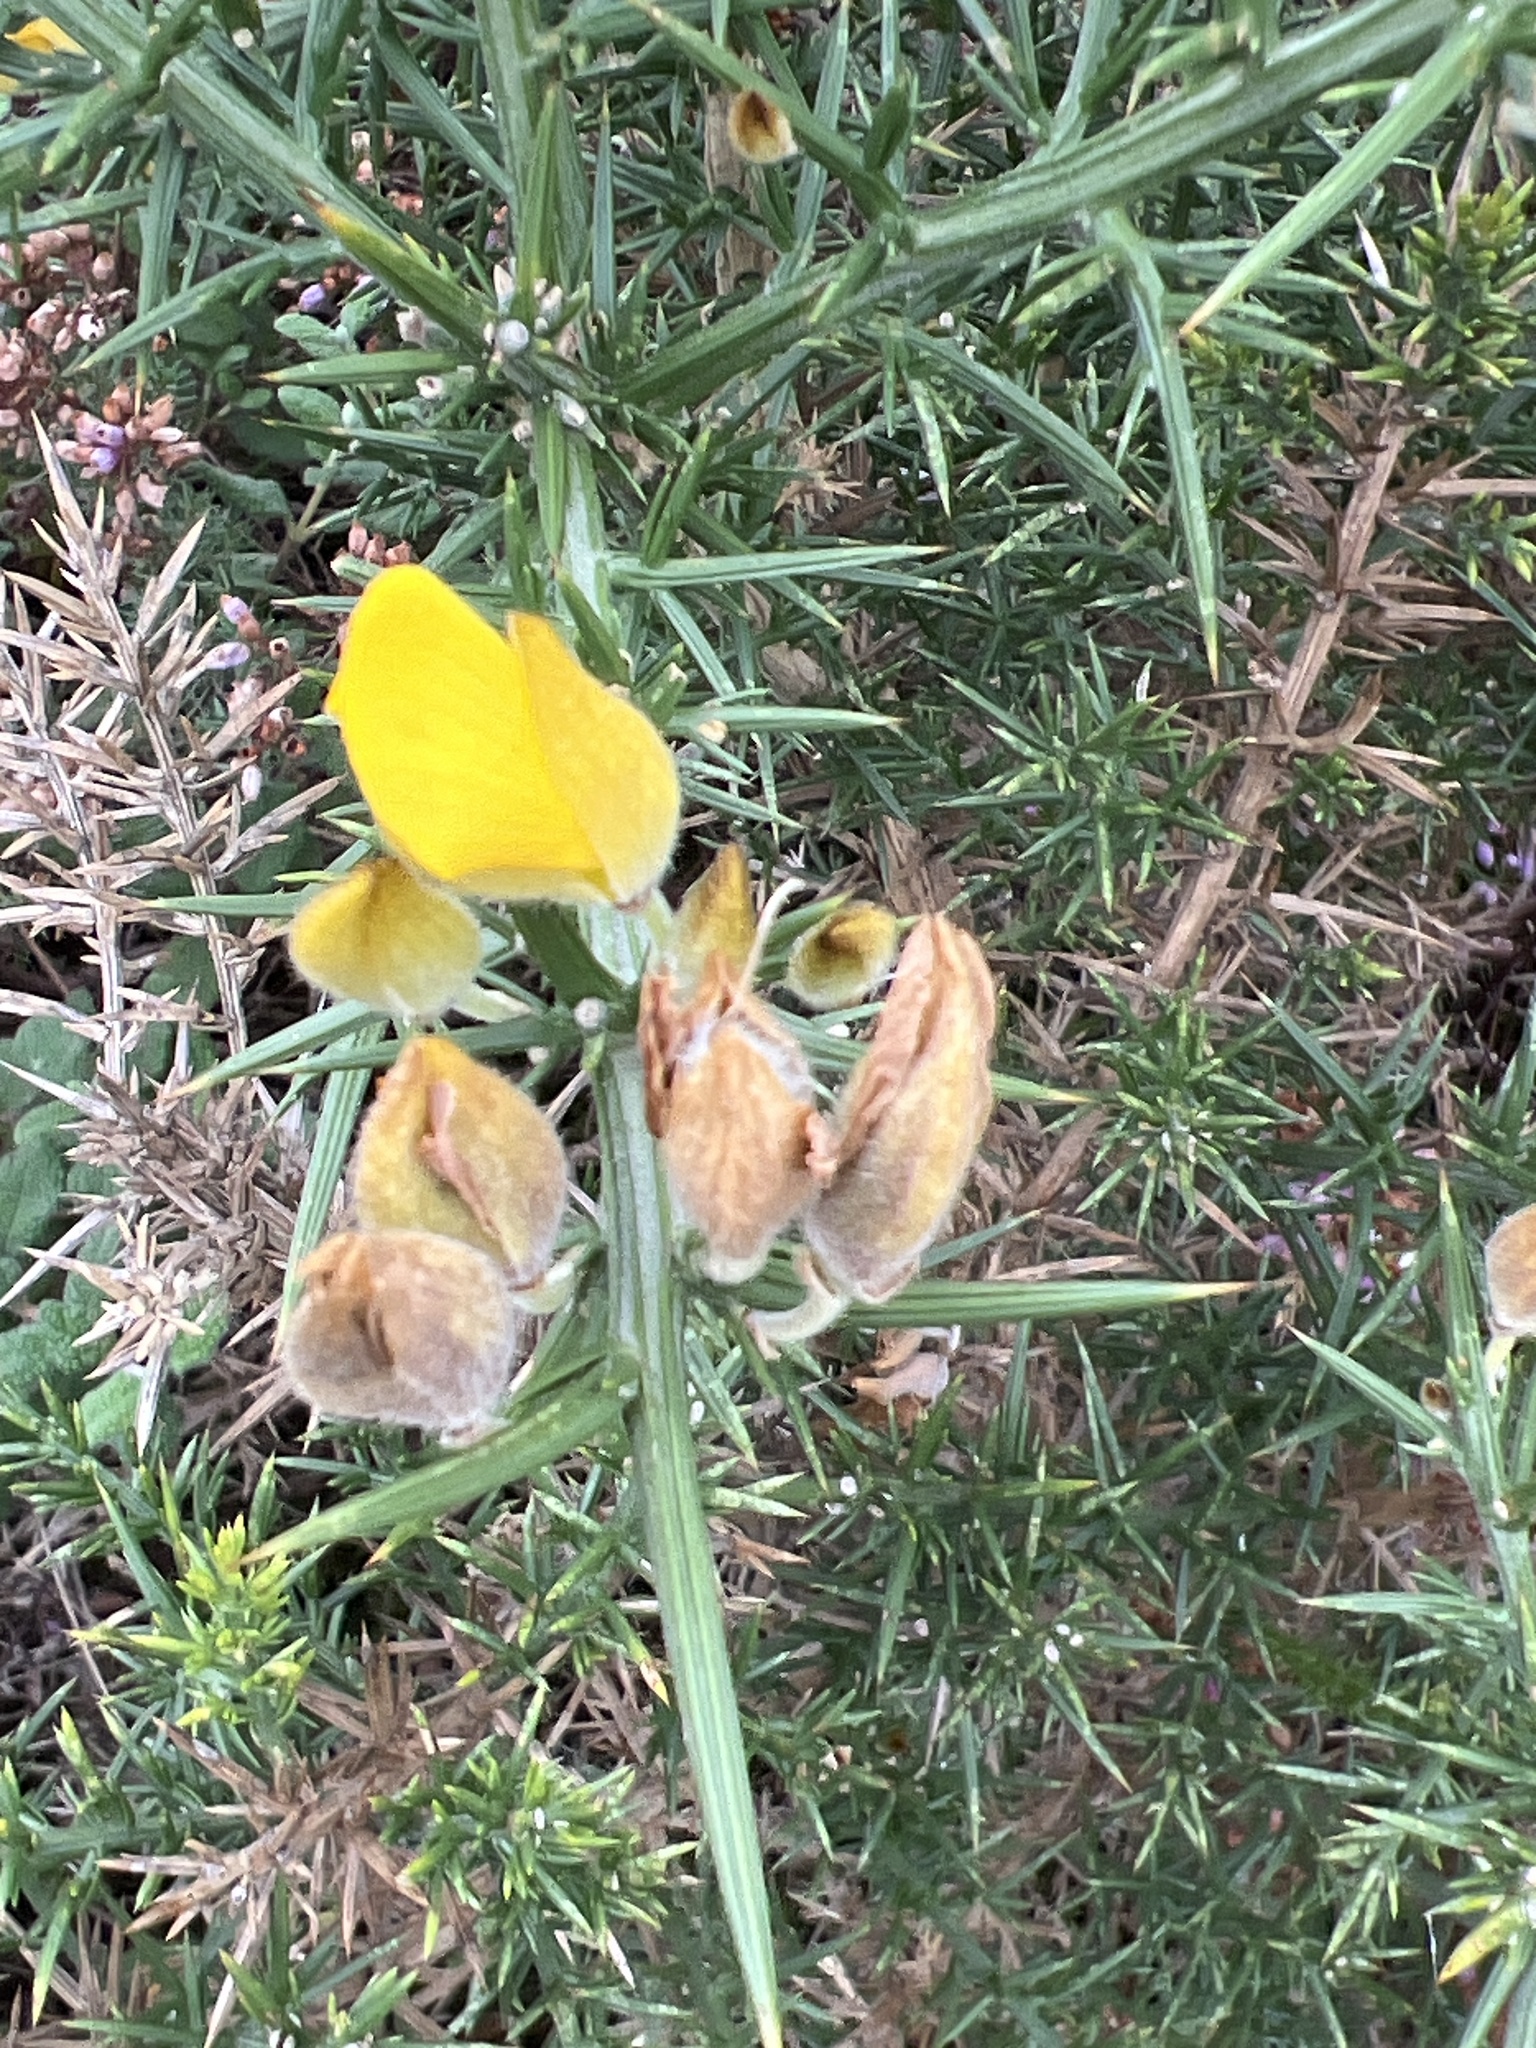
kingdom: Plantae
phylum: Tracheophyta
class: Magnoliopsida
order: Fabales
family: Fabaceae
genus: Ulex
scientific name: Ulex europaeus
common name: Common gorse
